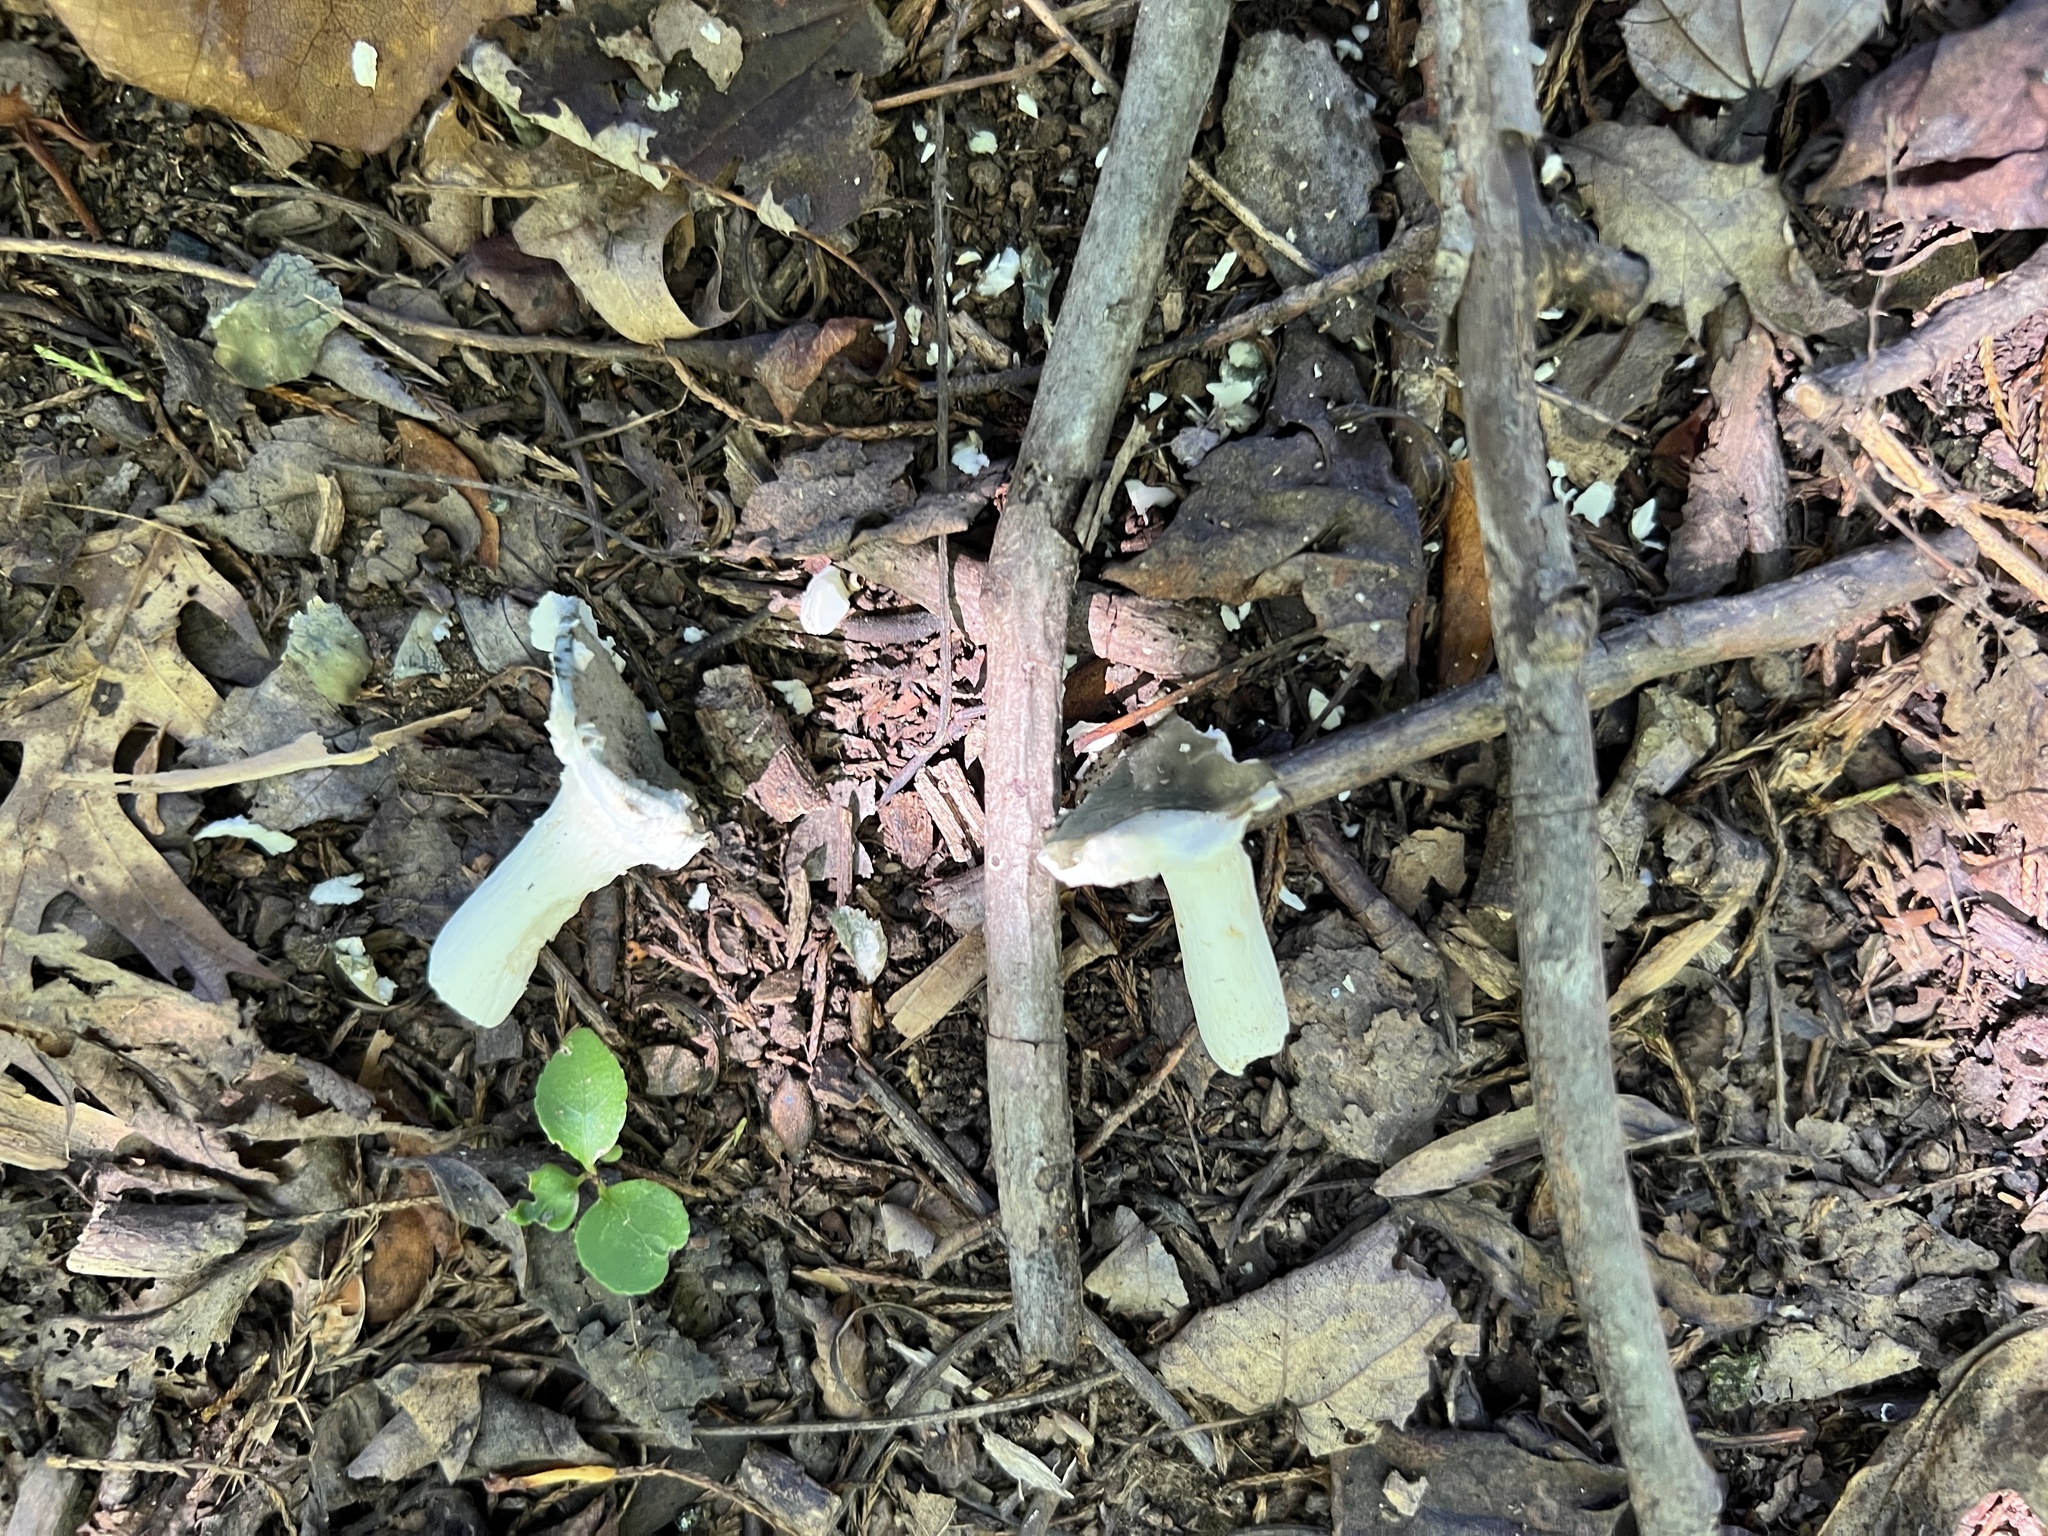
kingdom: Fungi
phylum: Basidiomycota
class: Agaricomycetes
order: Russulales
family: Russulaceae
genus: Russula
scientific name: Russula parvovirescens
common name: Blue-green cracking russula
